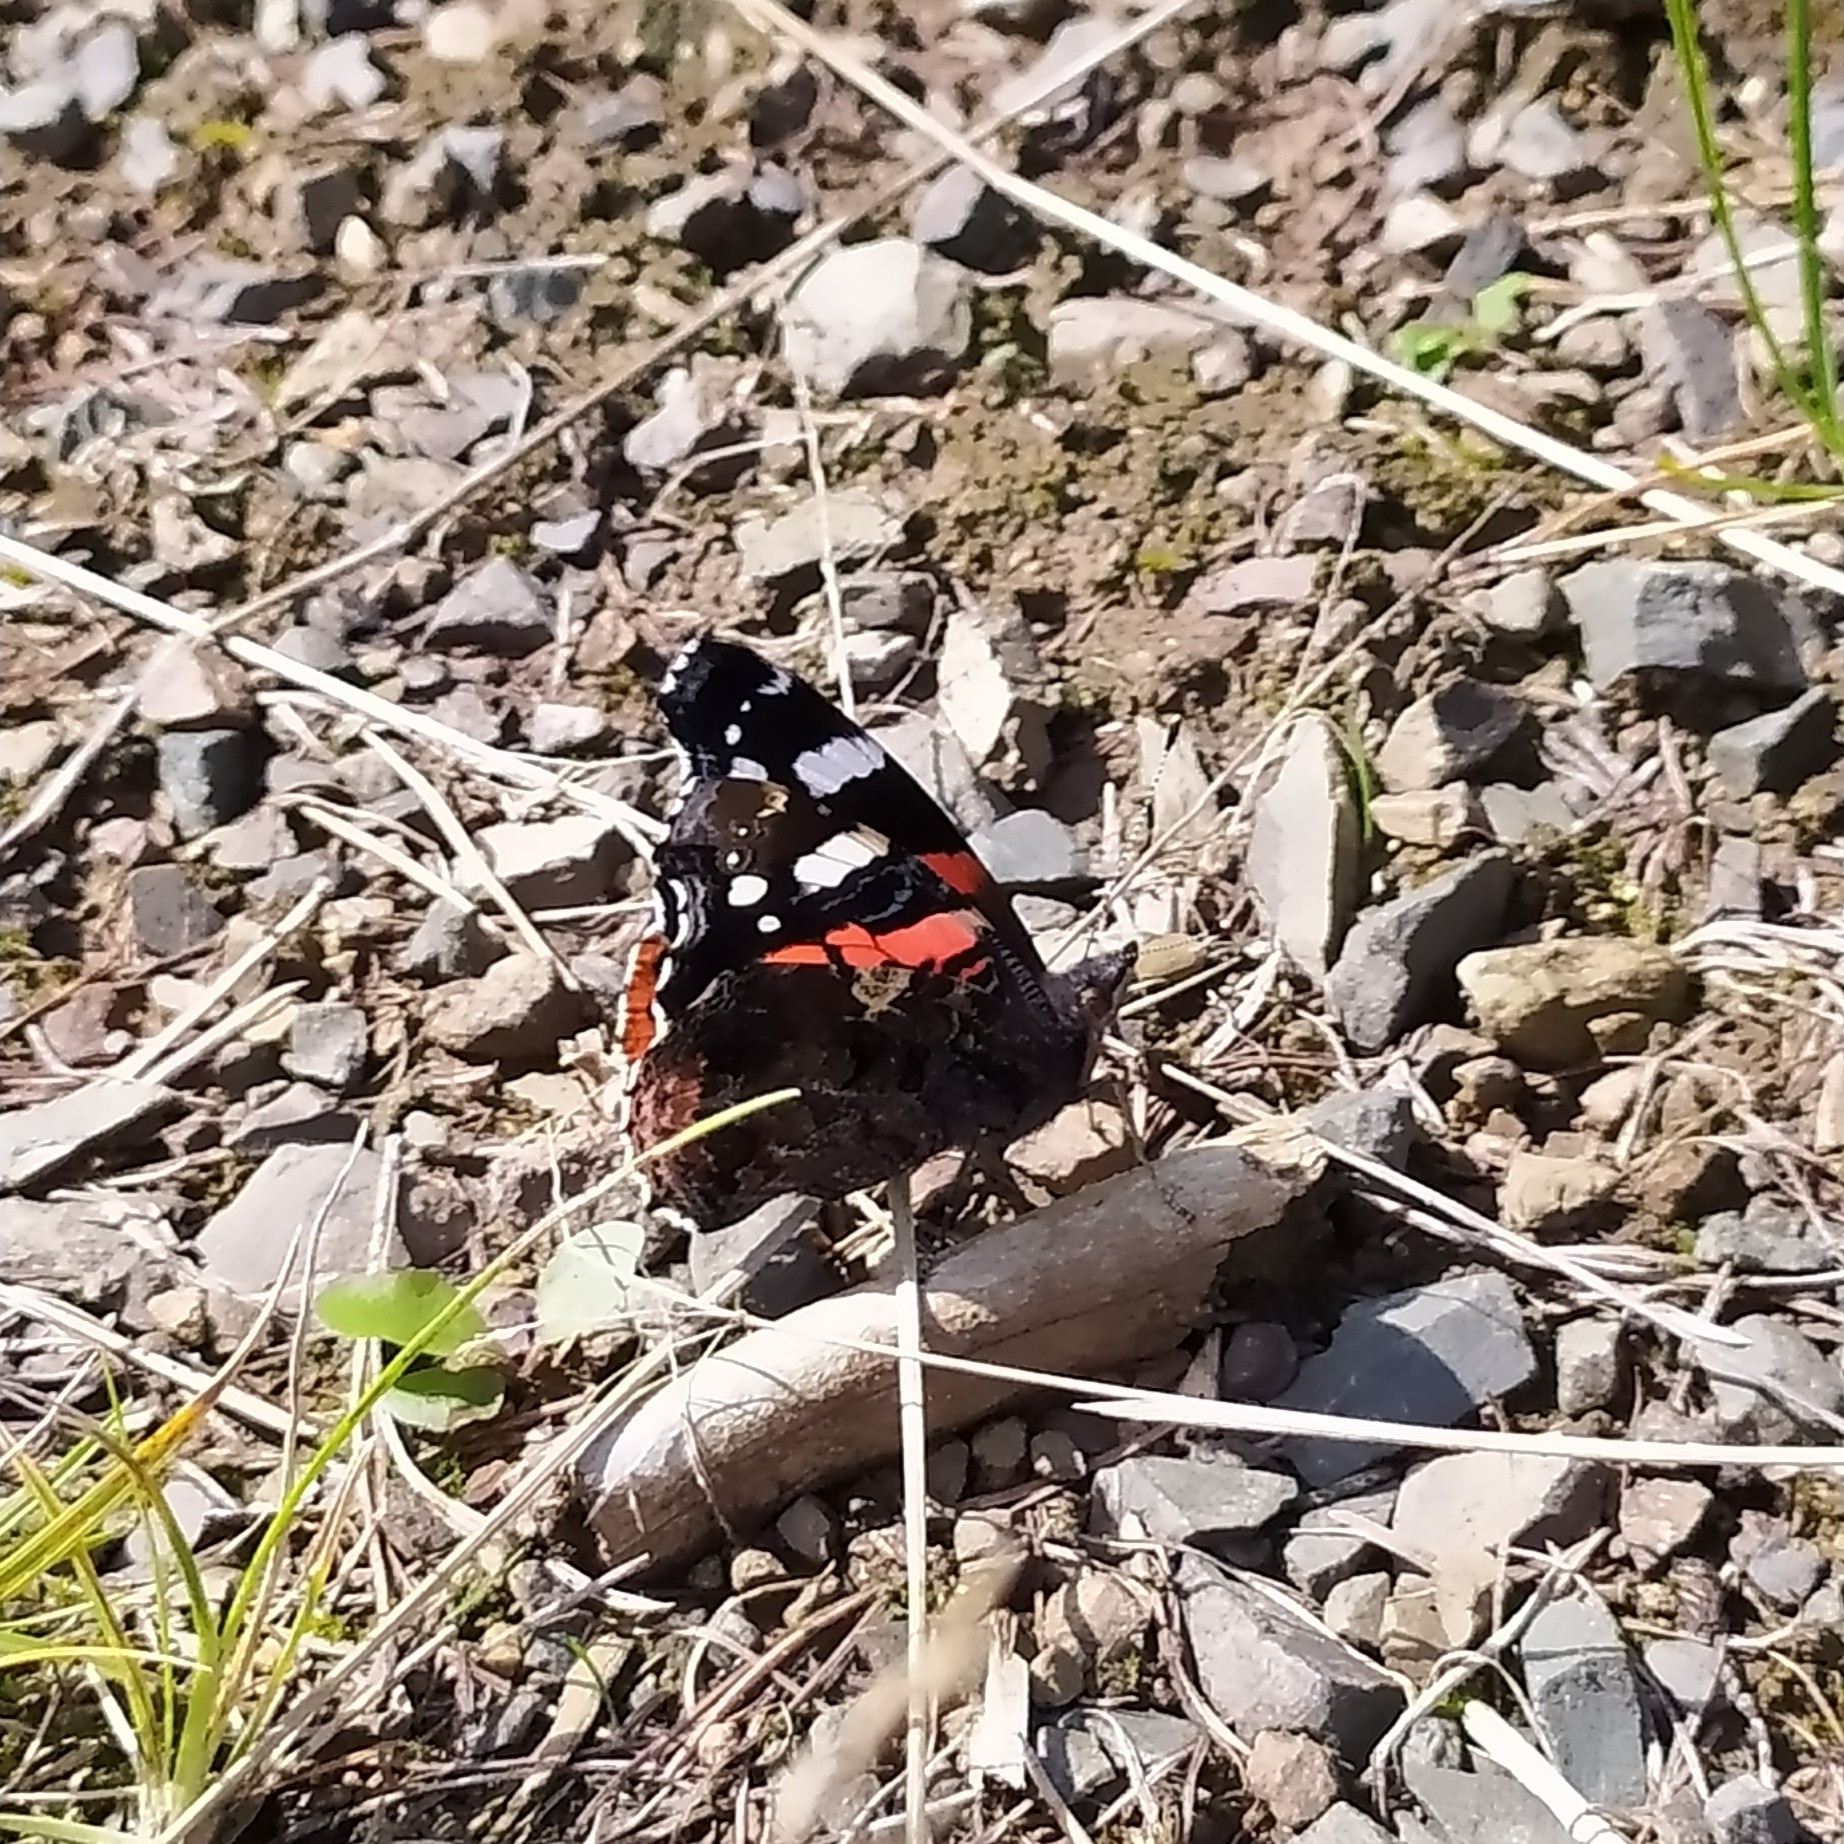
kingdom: Animalia
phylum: Arthropoda
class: Insecta
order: Lepidoptera
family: Nymphalidae
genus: Vanessa
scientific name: Vanessa atalanta
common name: Red admiral
